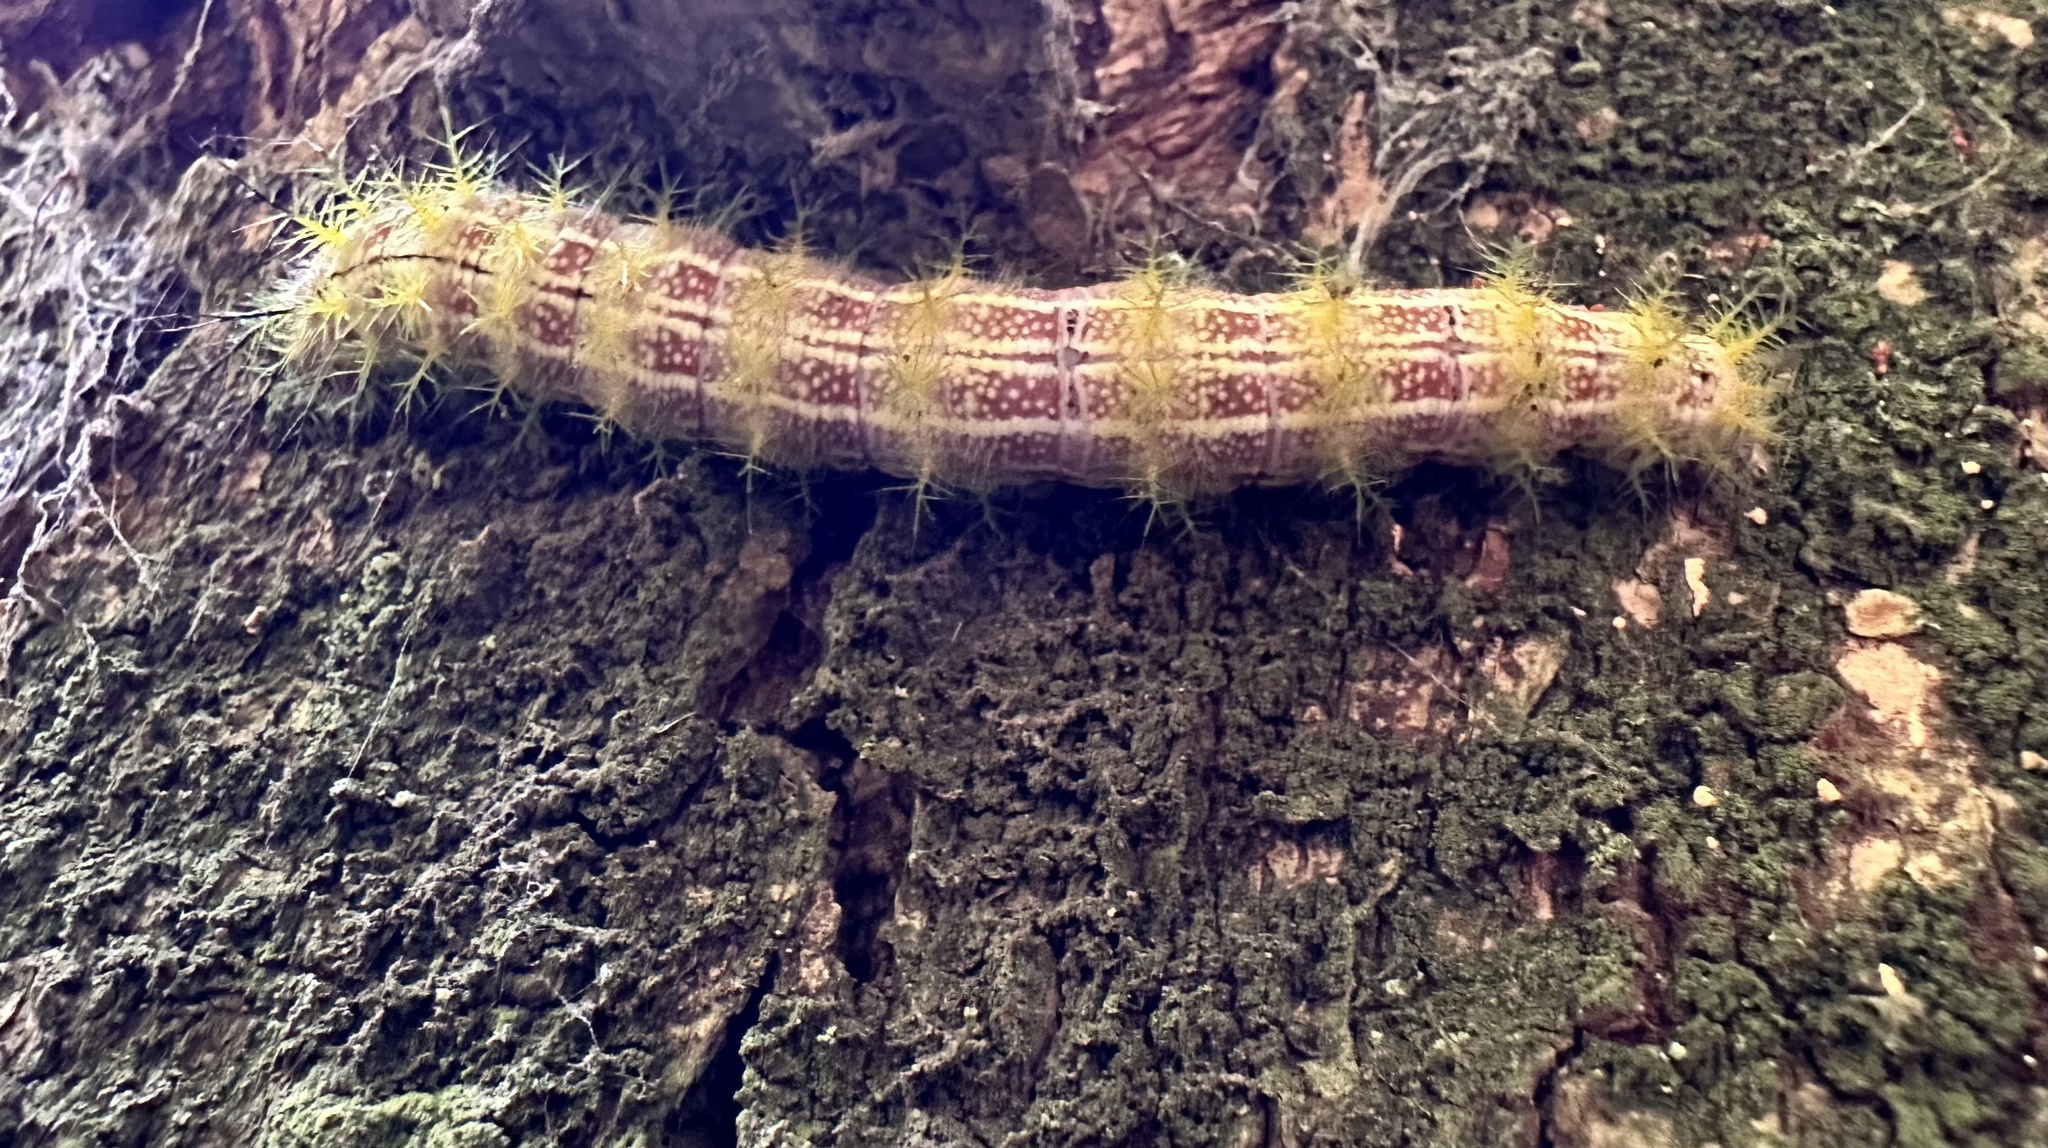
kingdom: Animalia
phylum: Arthropoda
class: Insecta
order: Lepidoptera
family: Saturniidae
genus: Ormiscodes
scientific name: Ormiscodes amphinome
